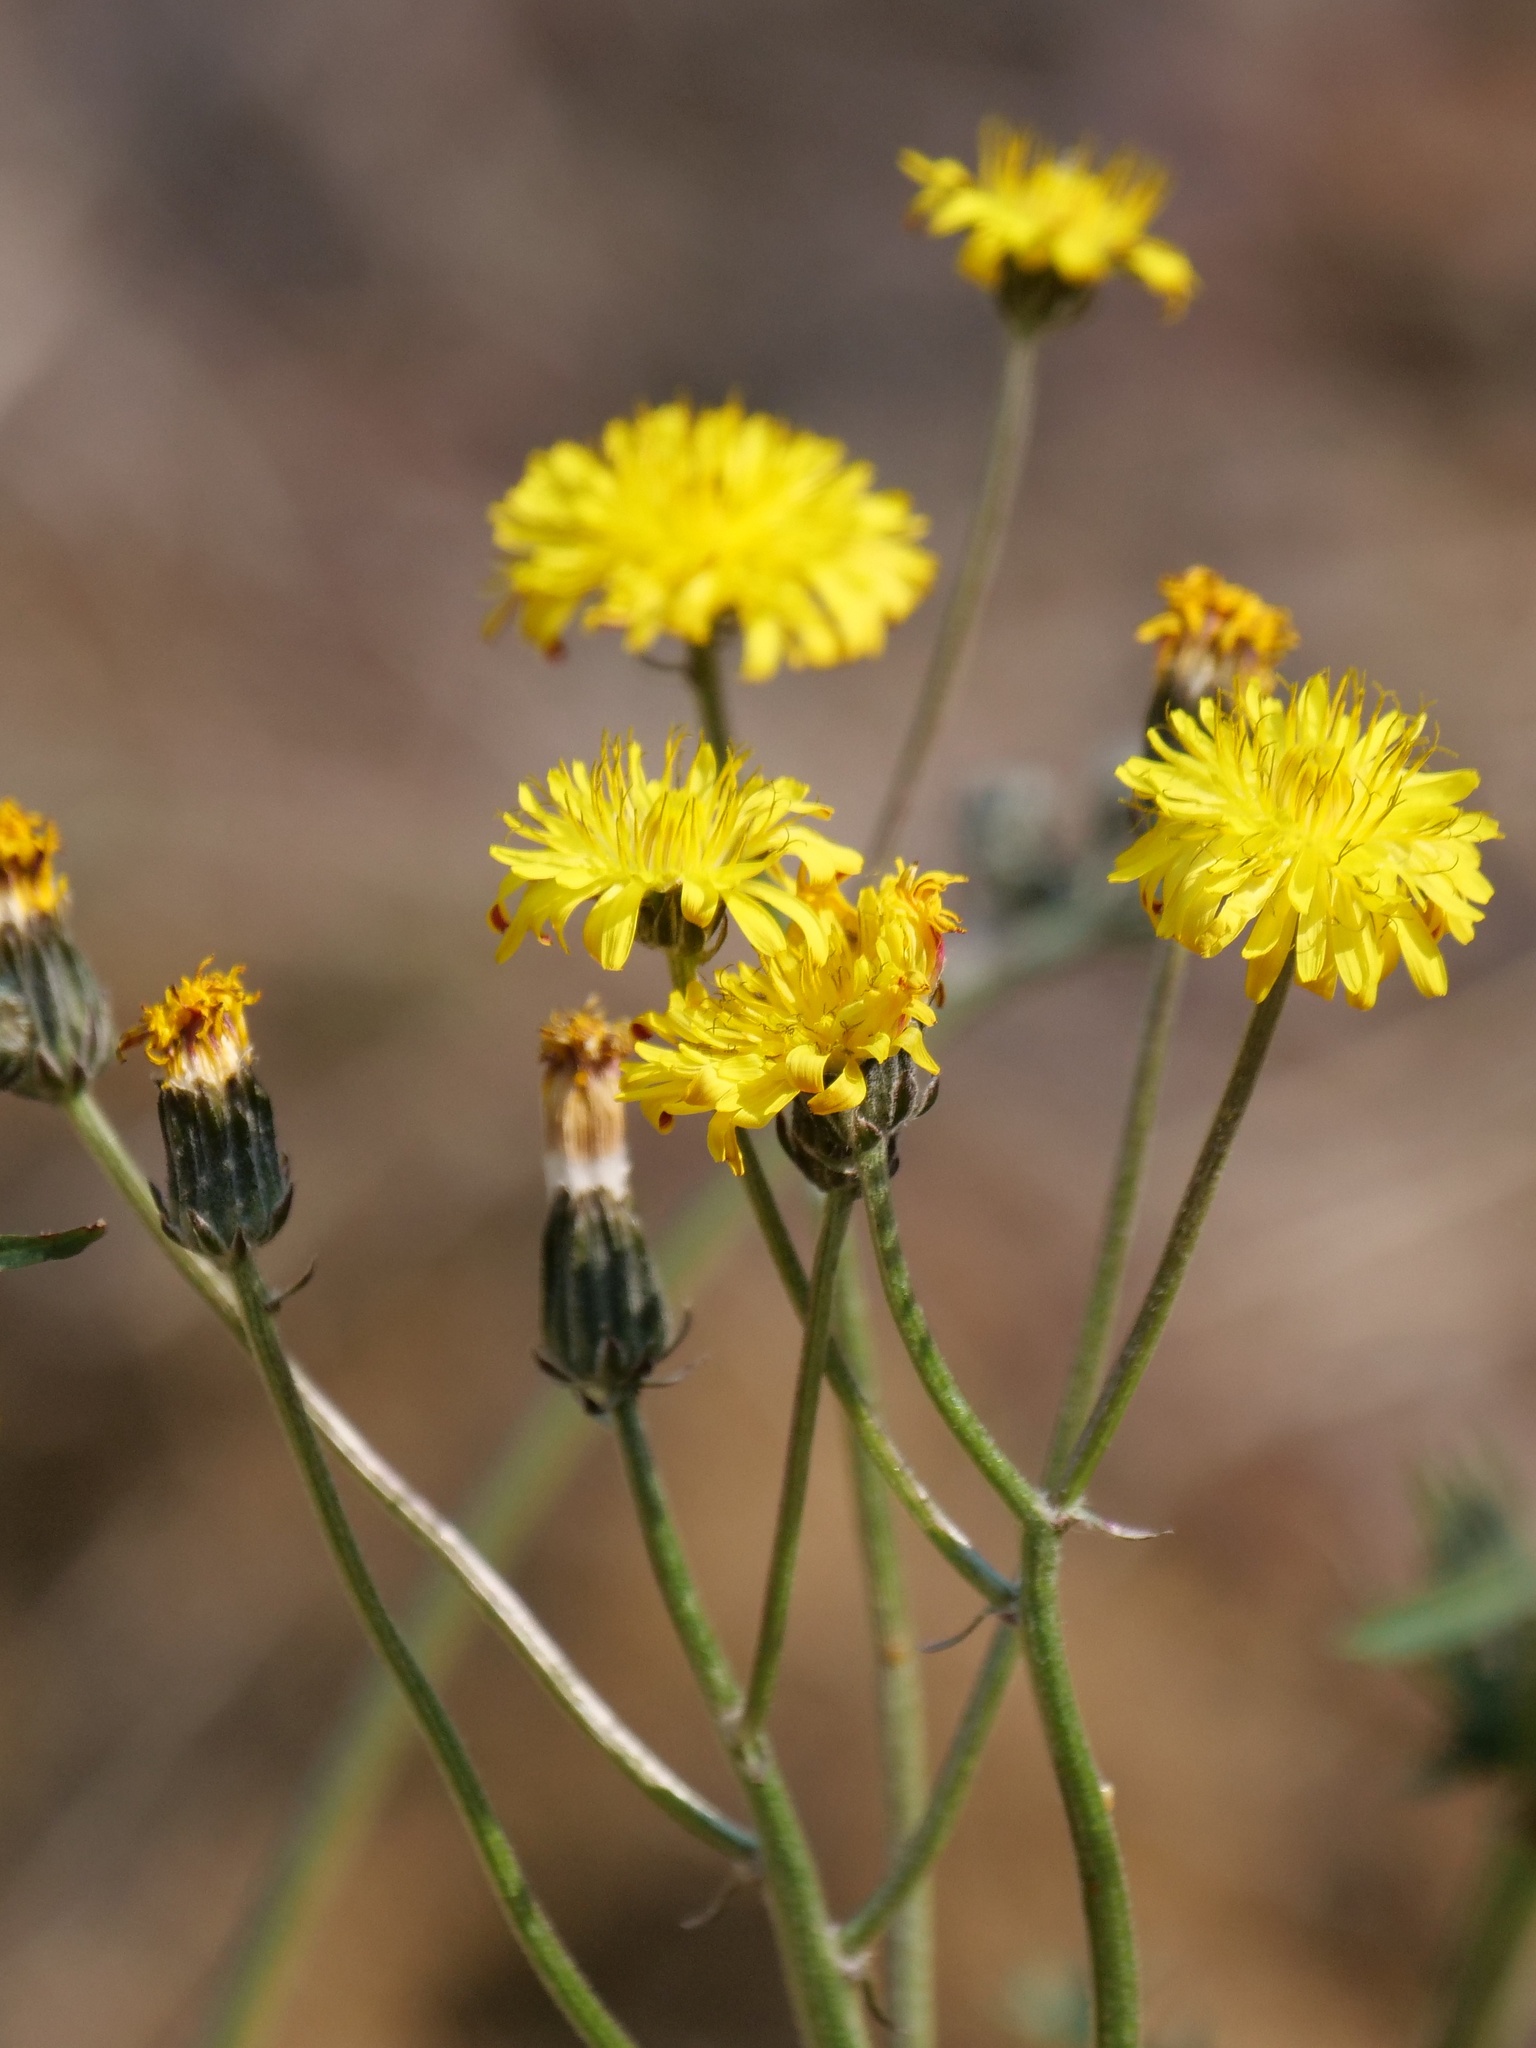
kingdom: Plantae
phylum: Tracheophyta
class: Magnoliopsida
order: Asterales
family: Asteraceae
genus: Crepis
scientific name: Crepis vesicaria
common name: Beaked hawksbeard
